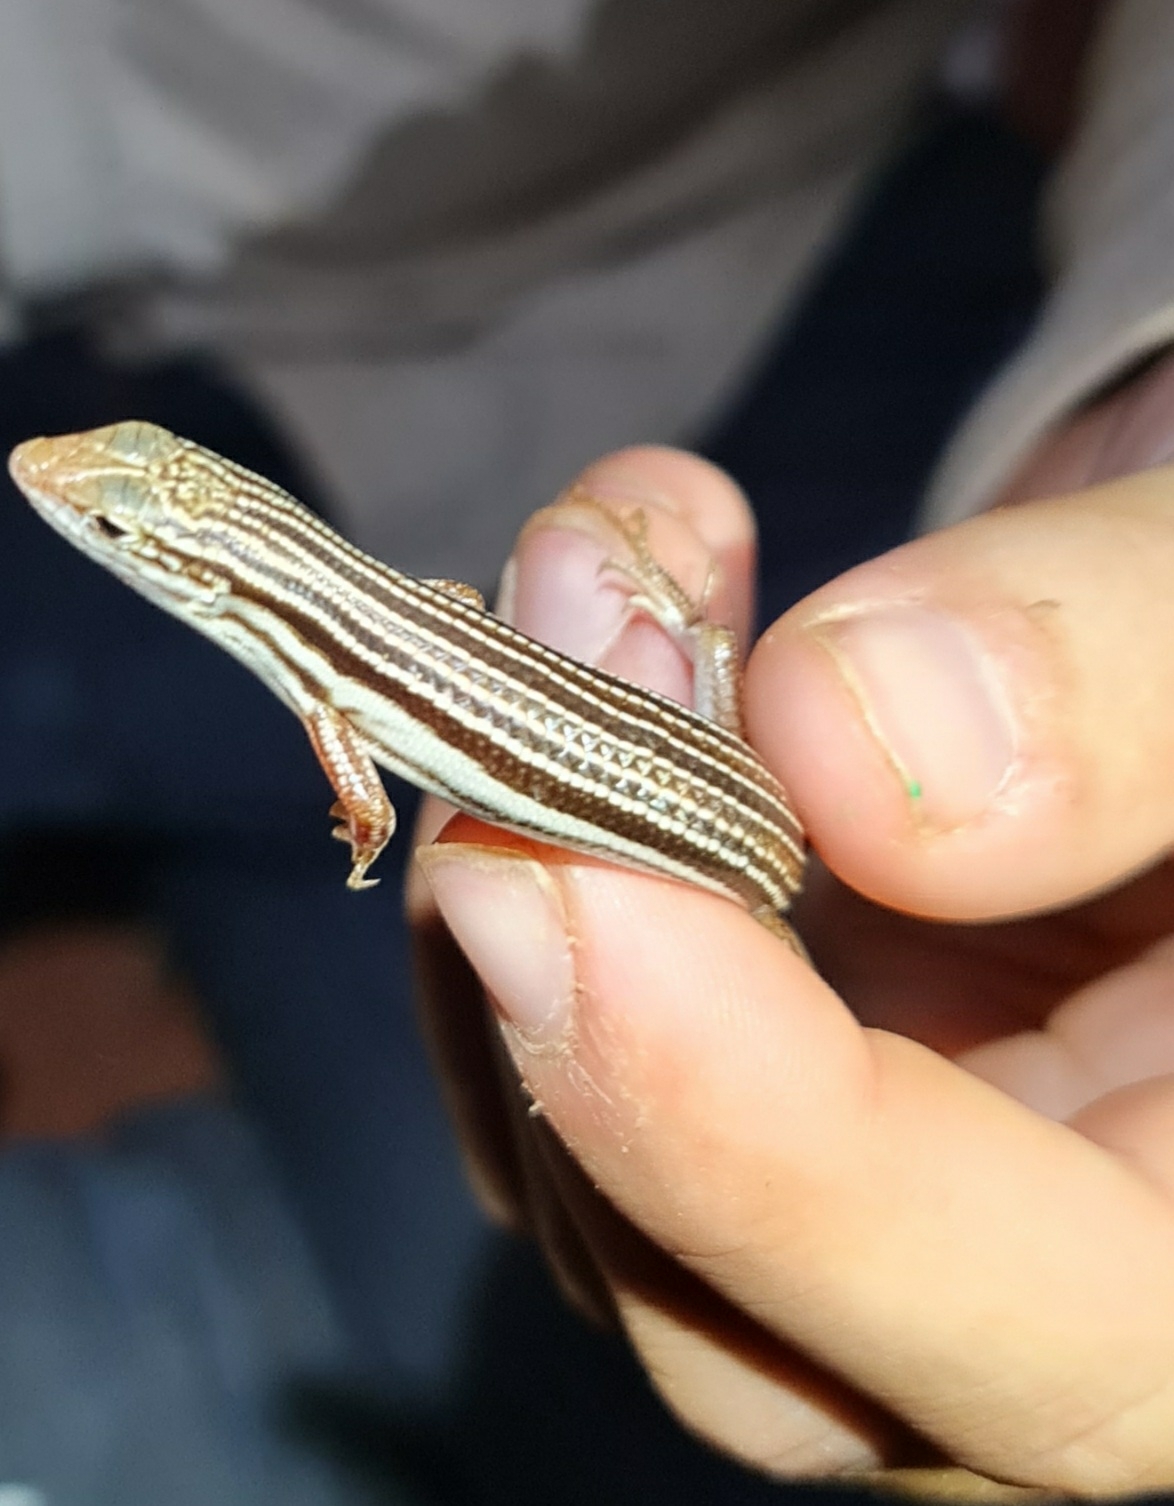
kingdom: Animalia
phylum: Chordata
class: Squamata
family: Scincidae
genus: Ctenotus
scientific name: Ctenotus leae
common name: Orange-tailed finesnout ctenotus
